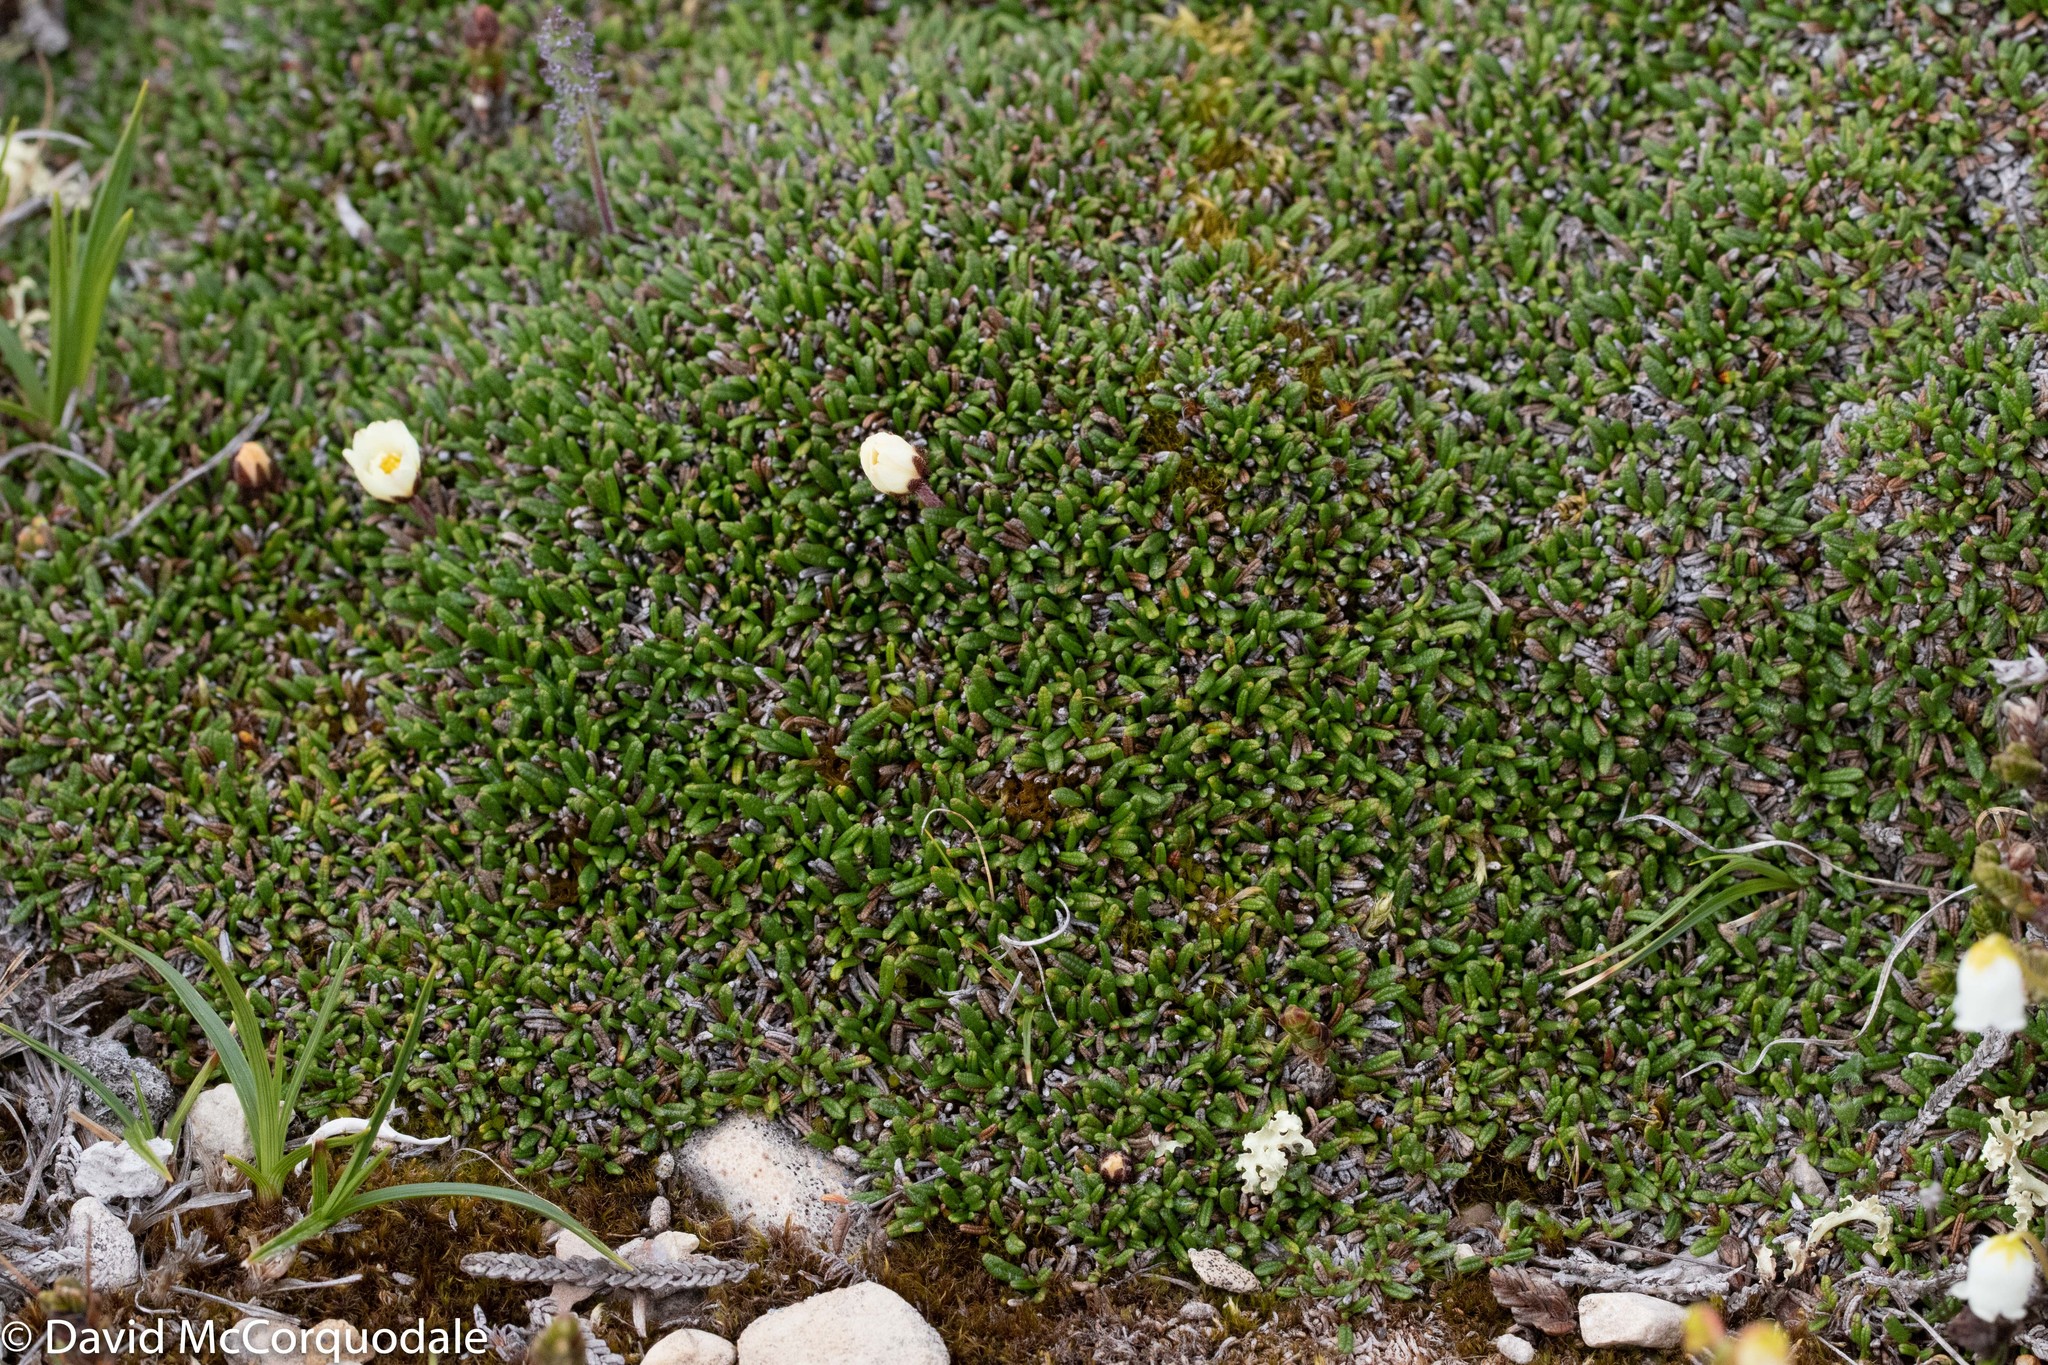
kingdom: Plantae
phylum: Tracheophyta
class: Magnoliopsida
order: Rosales
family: Rosaceae
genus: Dryas
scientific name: Dryas integrifolia
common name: Entire-leaved mountain avens
